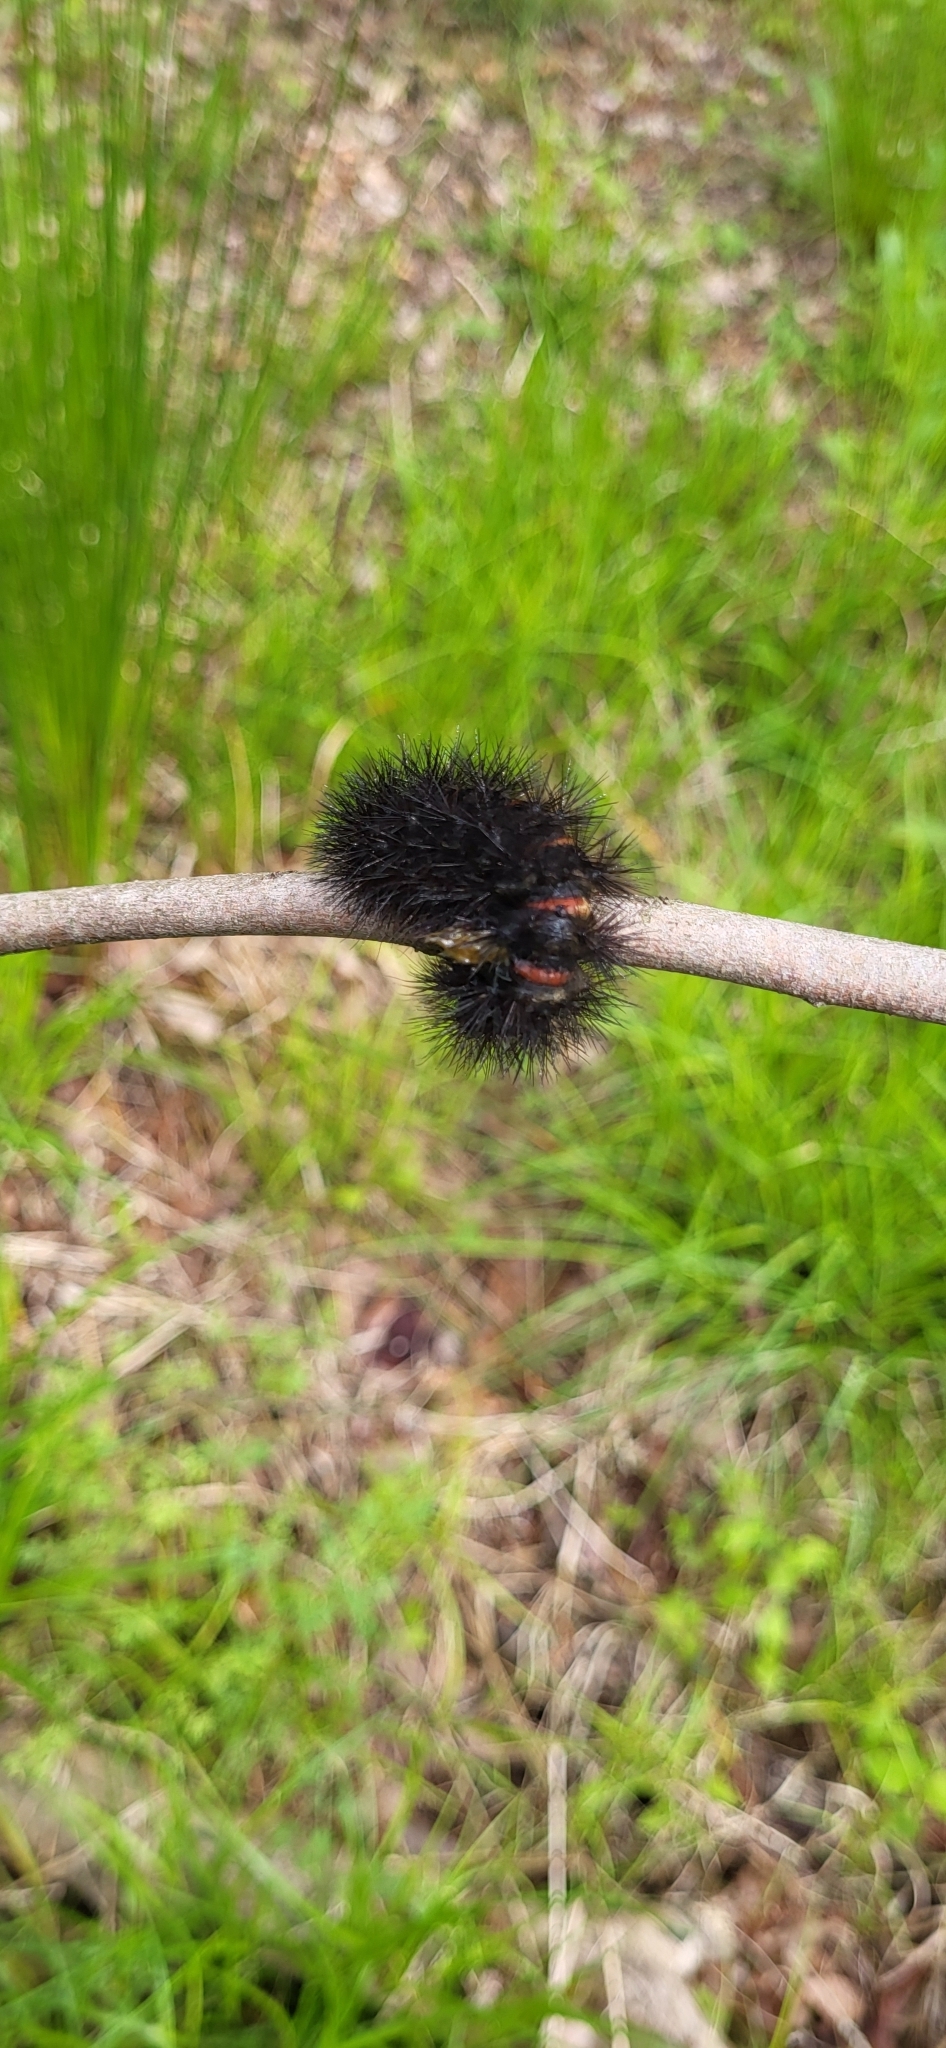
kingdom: Animalia
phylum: Arthropoda
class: Insecta
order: Lepidoptera
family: Erebidae
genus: Hypercompe
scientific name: Hypercompe scribonia
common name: Giant leopard moth
